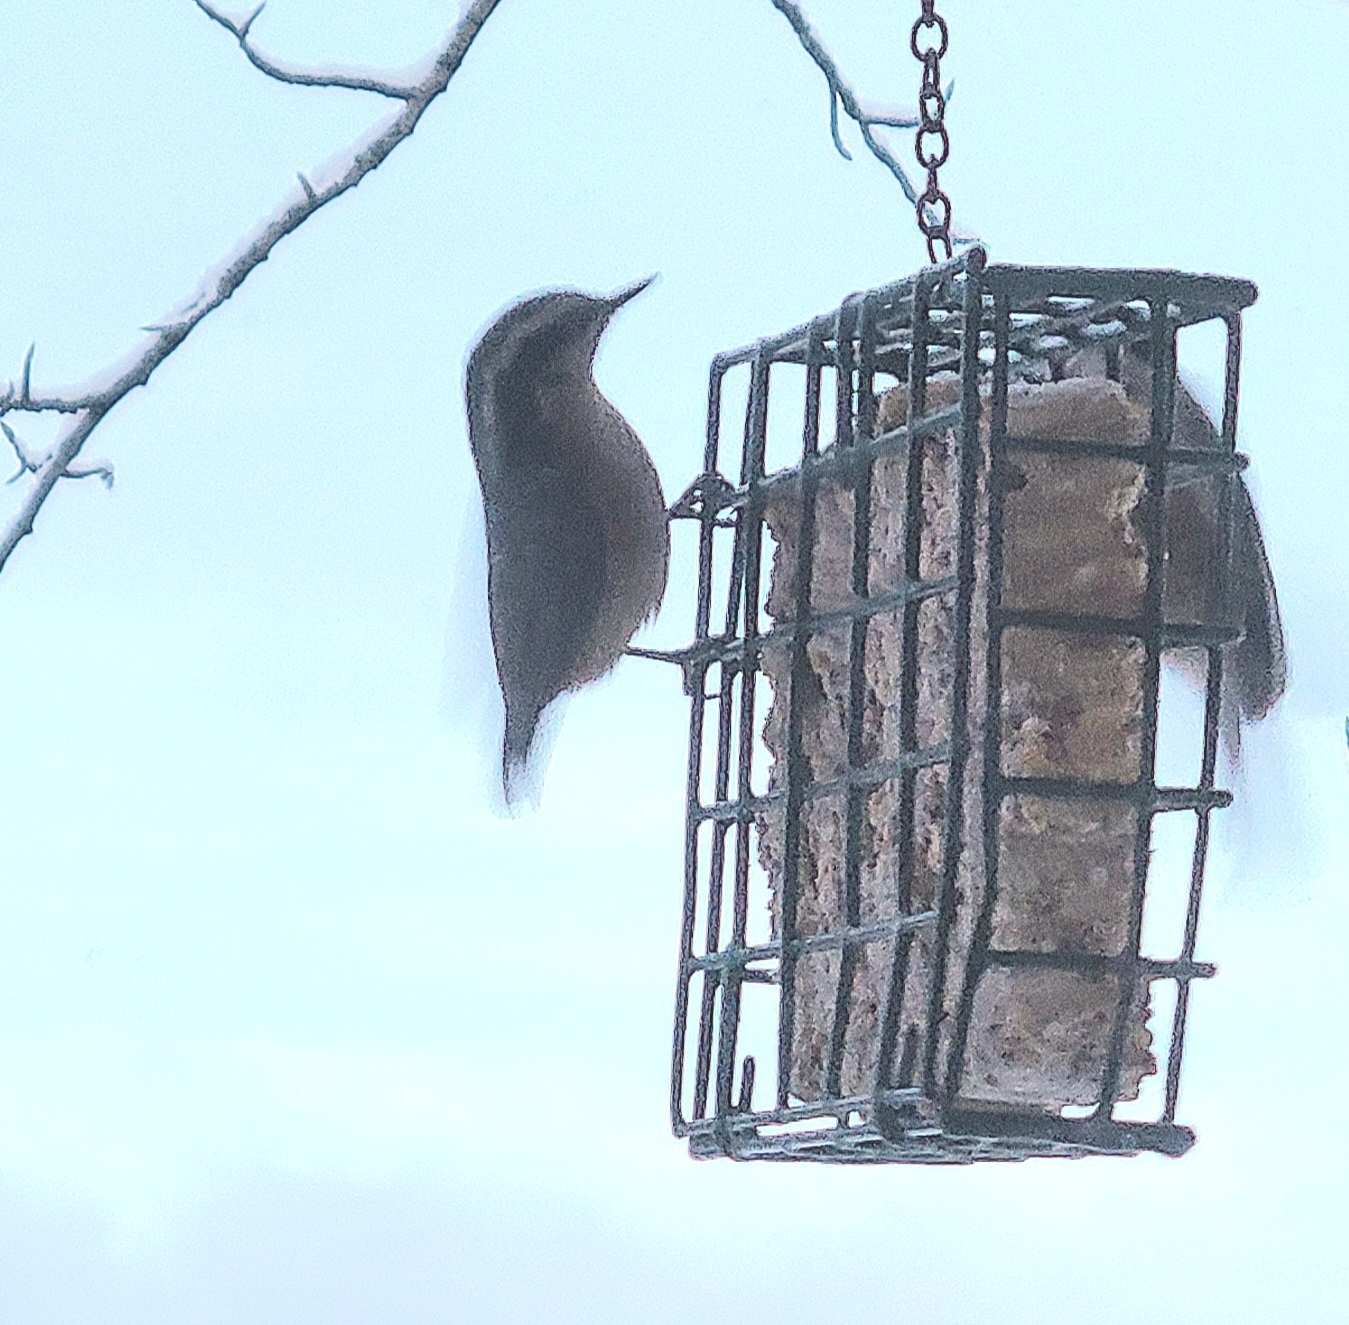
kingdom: Animalia
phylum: Chordata
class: Aves
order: Passeriformes
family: Sittidae
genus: Sitta
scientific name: Sitta canadensis
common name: Red-breasted nuthatch
